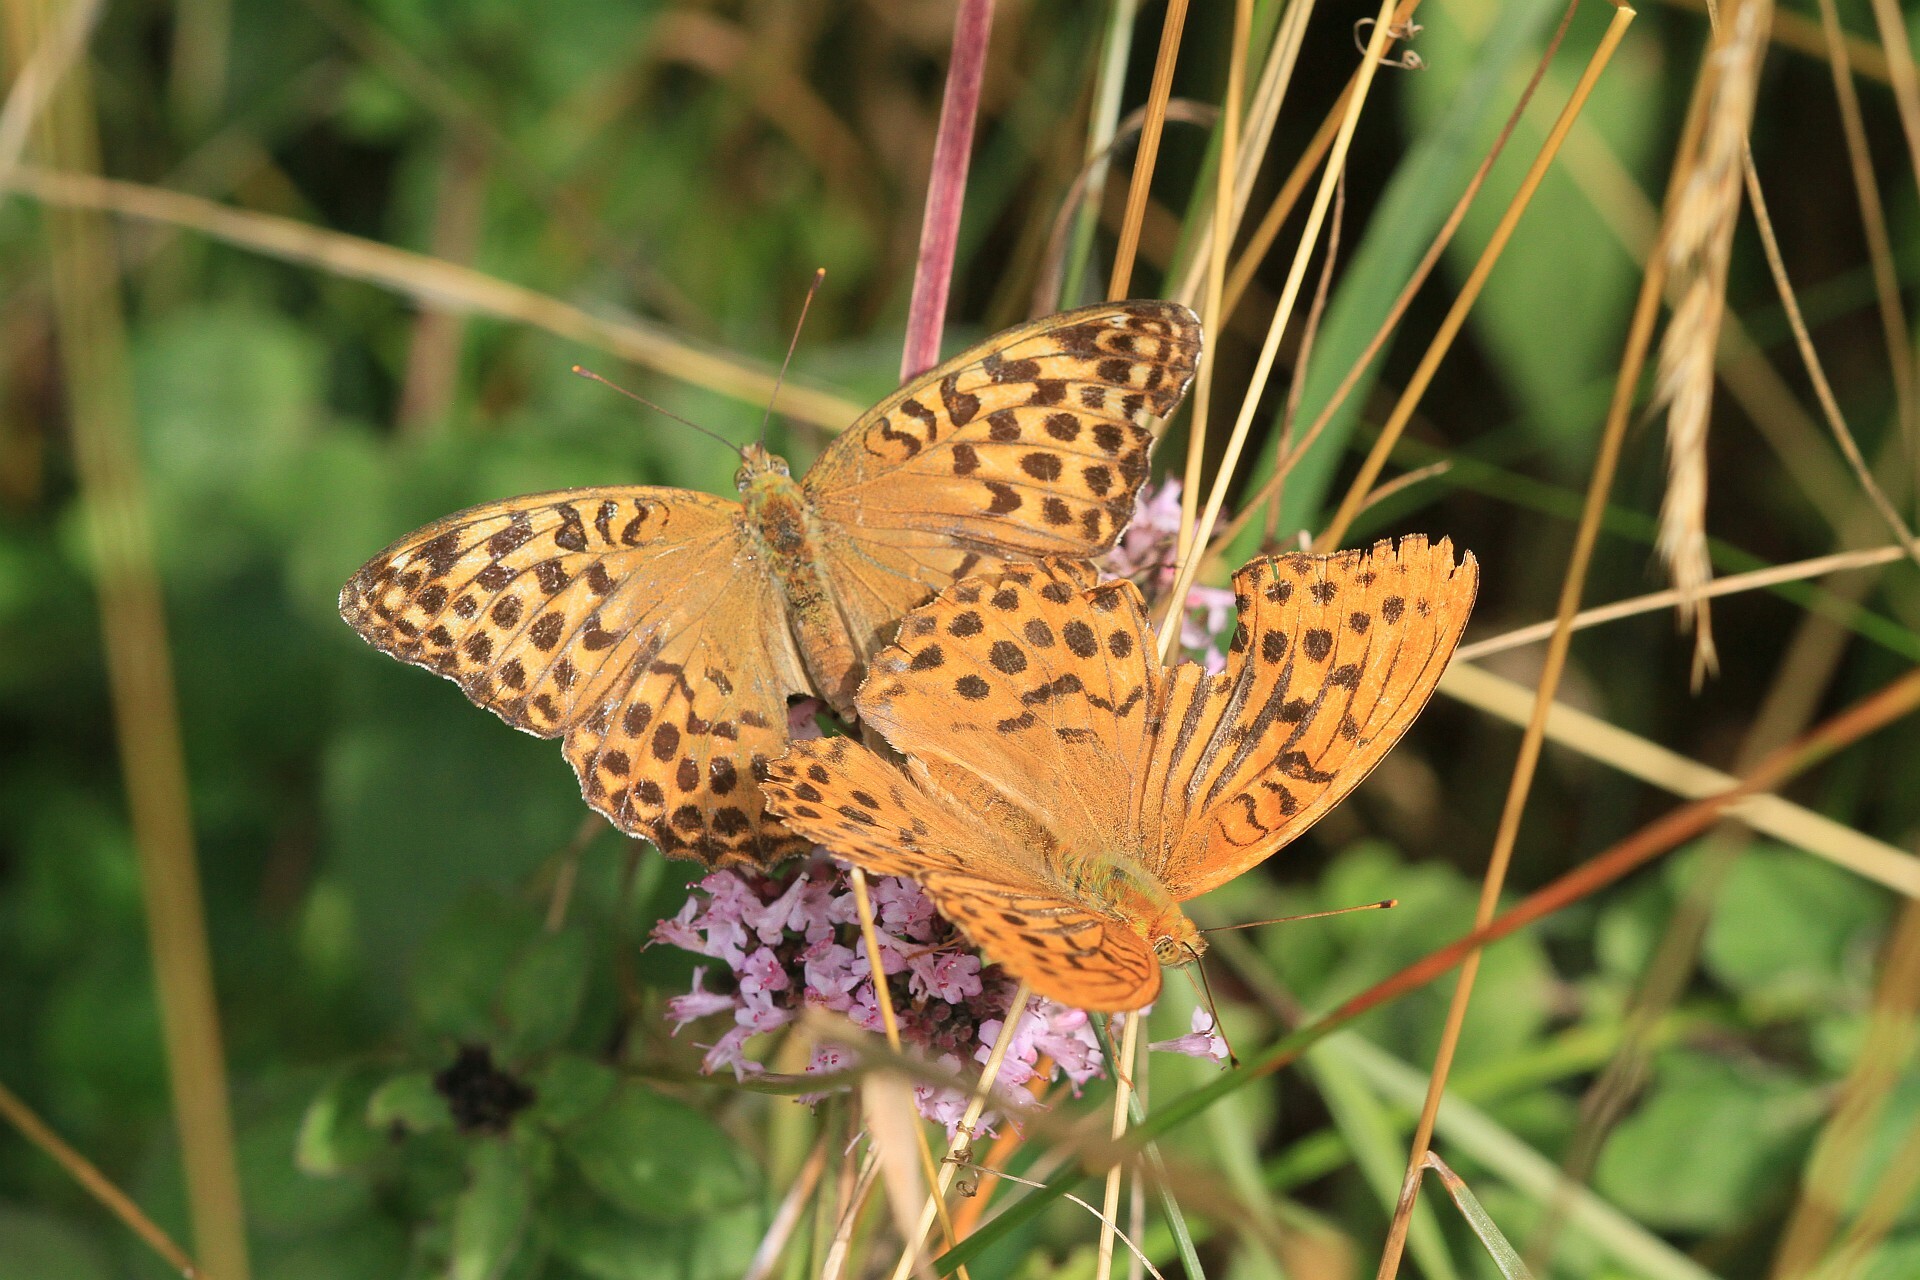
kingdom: Animalia
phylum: Arthropoda
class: Insecta
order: Lepidoptera
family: Nymphalidae
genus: Argynnis
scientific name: Argynnis paphia
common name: Silver-washed fritillary
